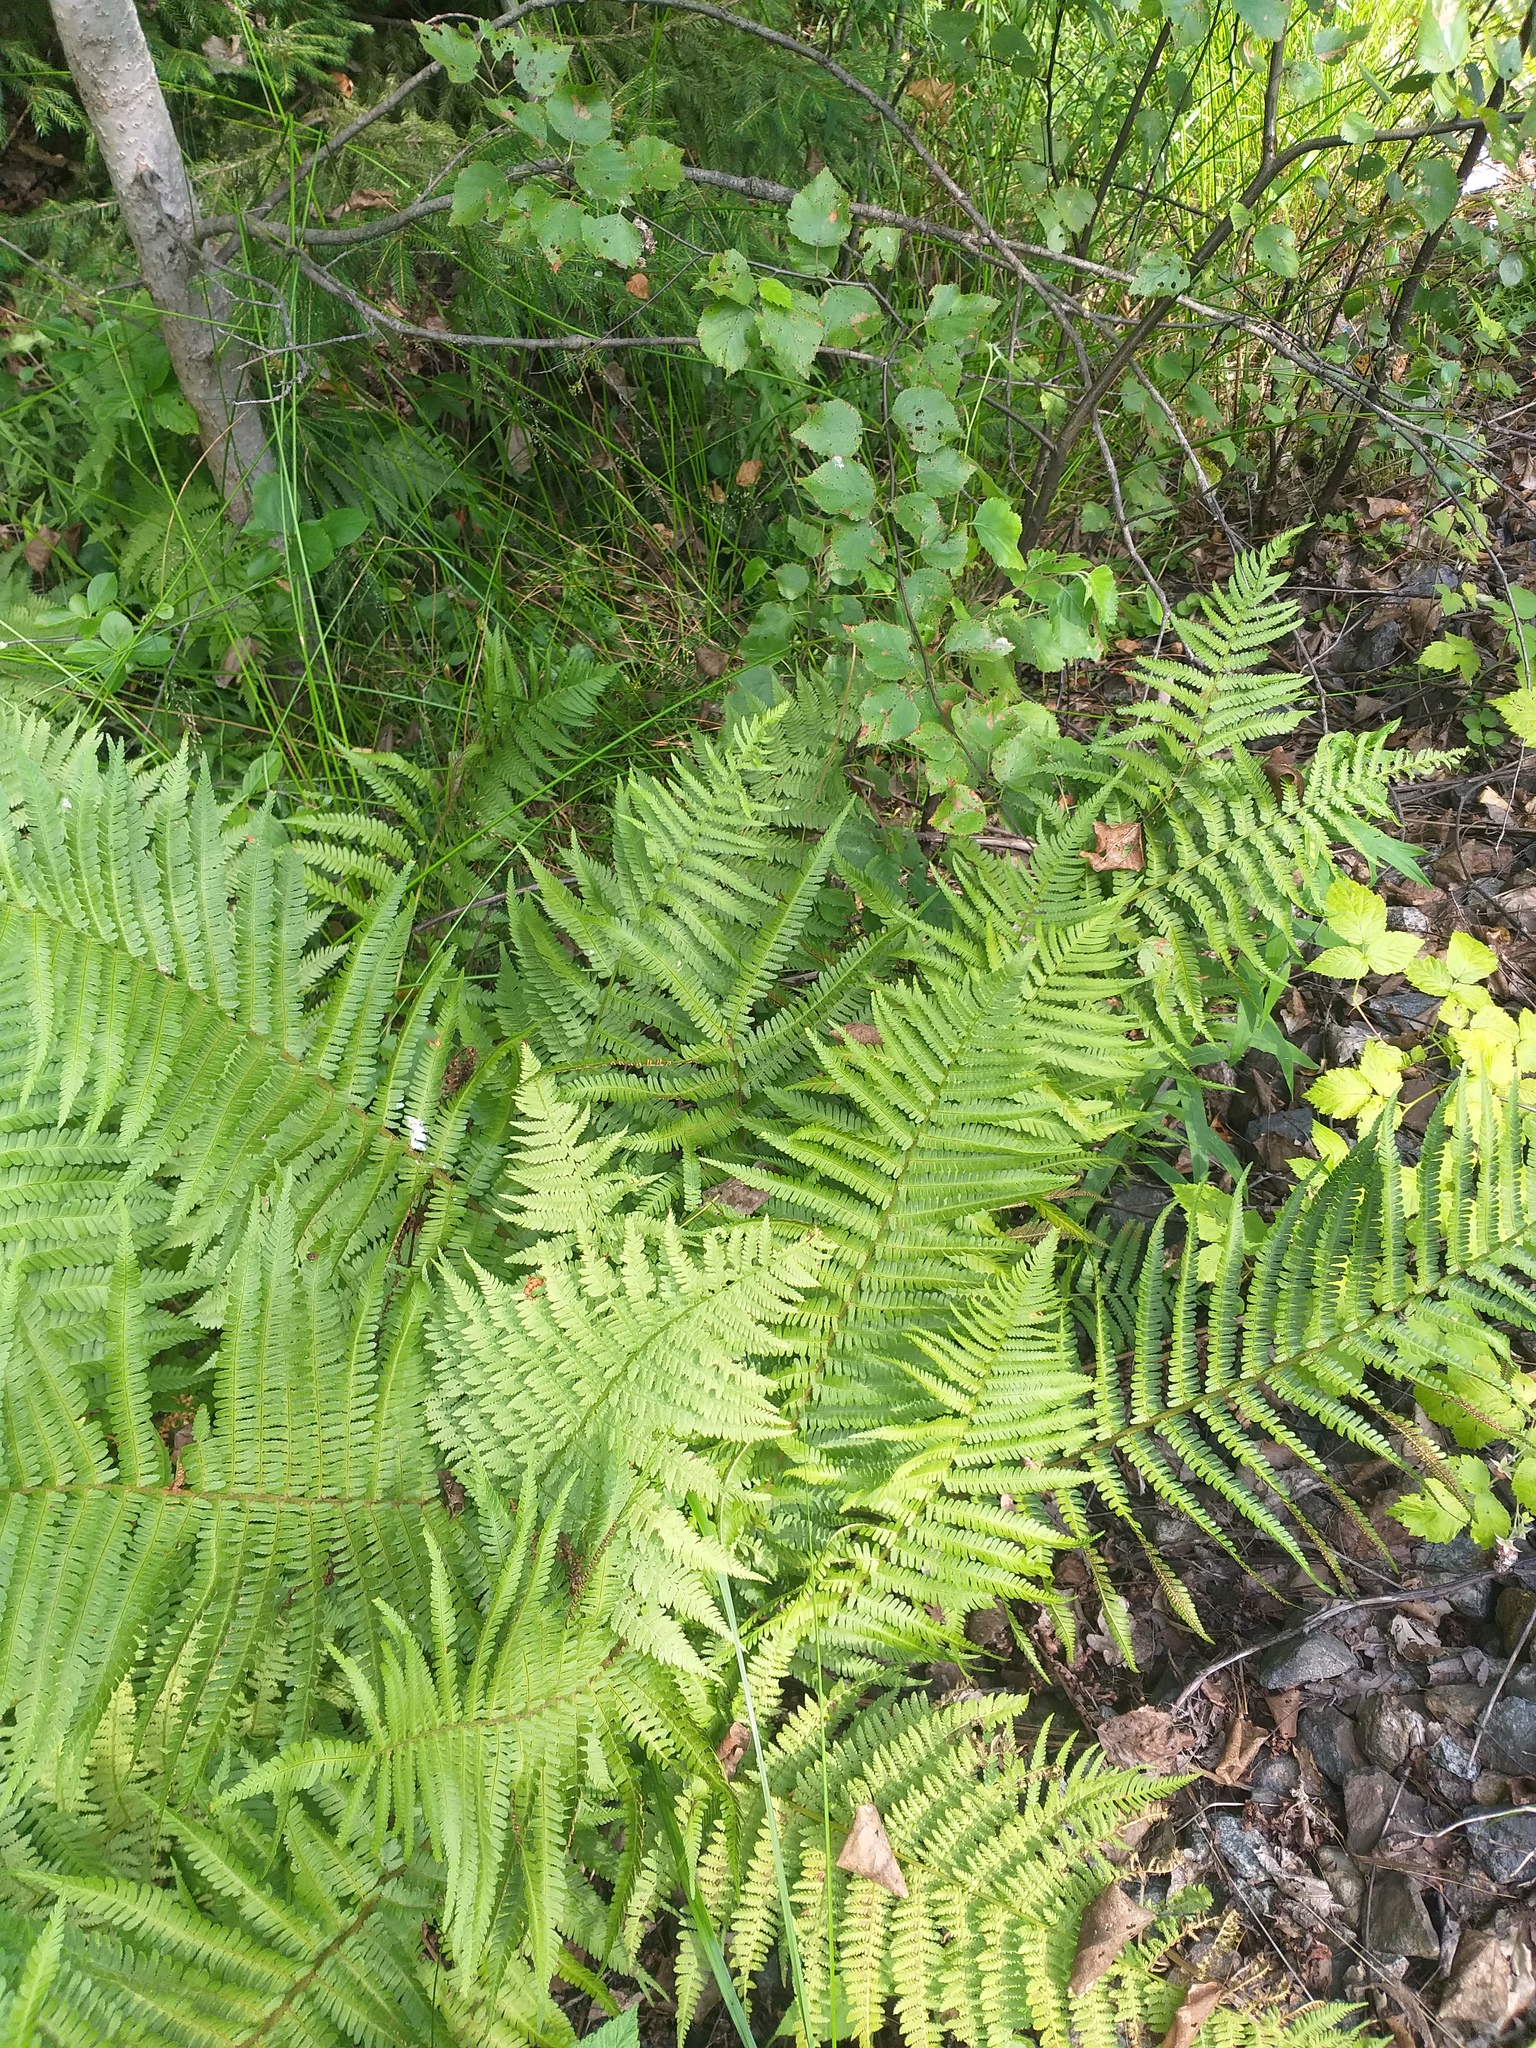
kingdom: Plantae
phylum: Tracheophyta
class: Polypodiopsida
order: Polypodiales
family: Dryopteridaceae
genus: Dryopteris
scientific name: Dryopteris filix-mas
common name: Male fern
